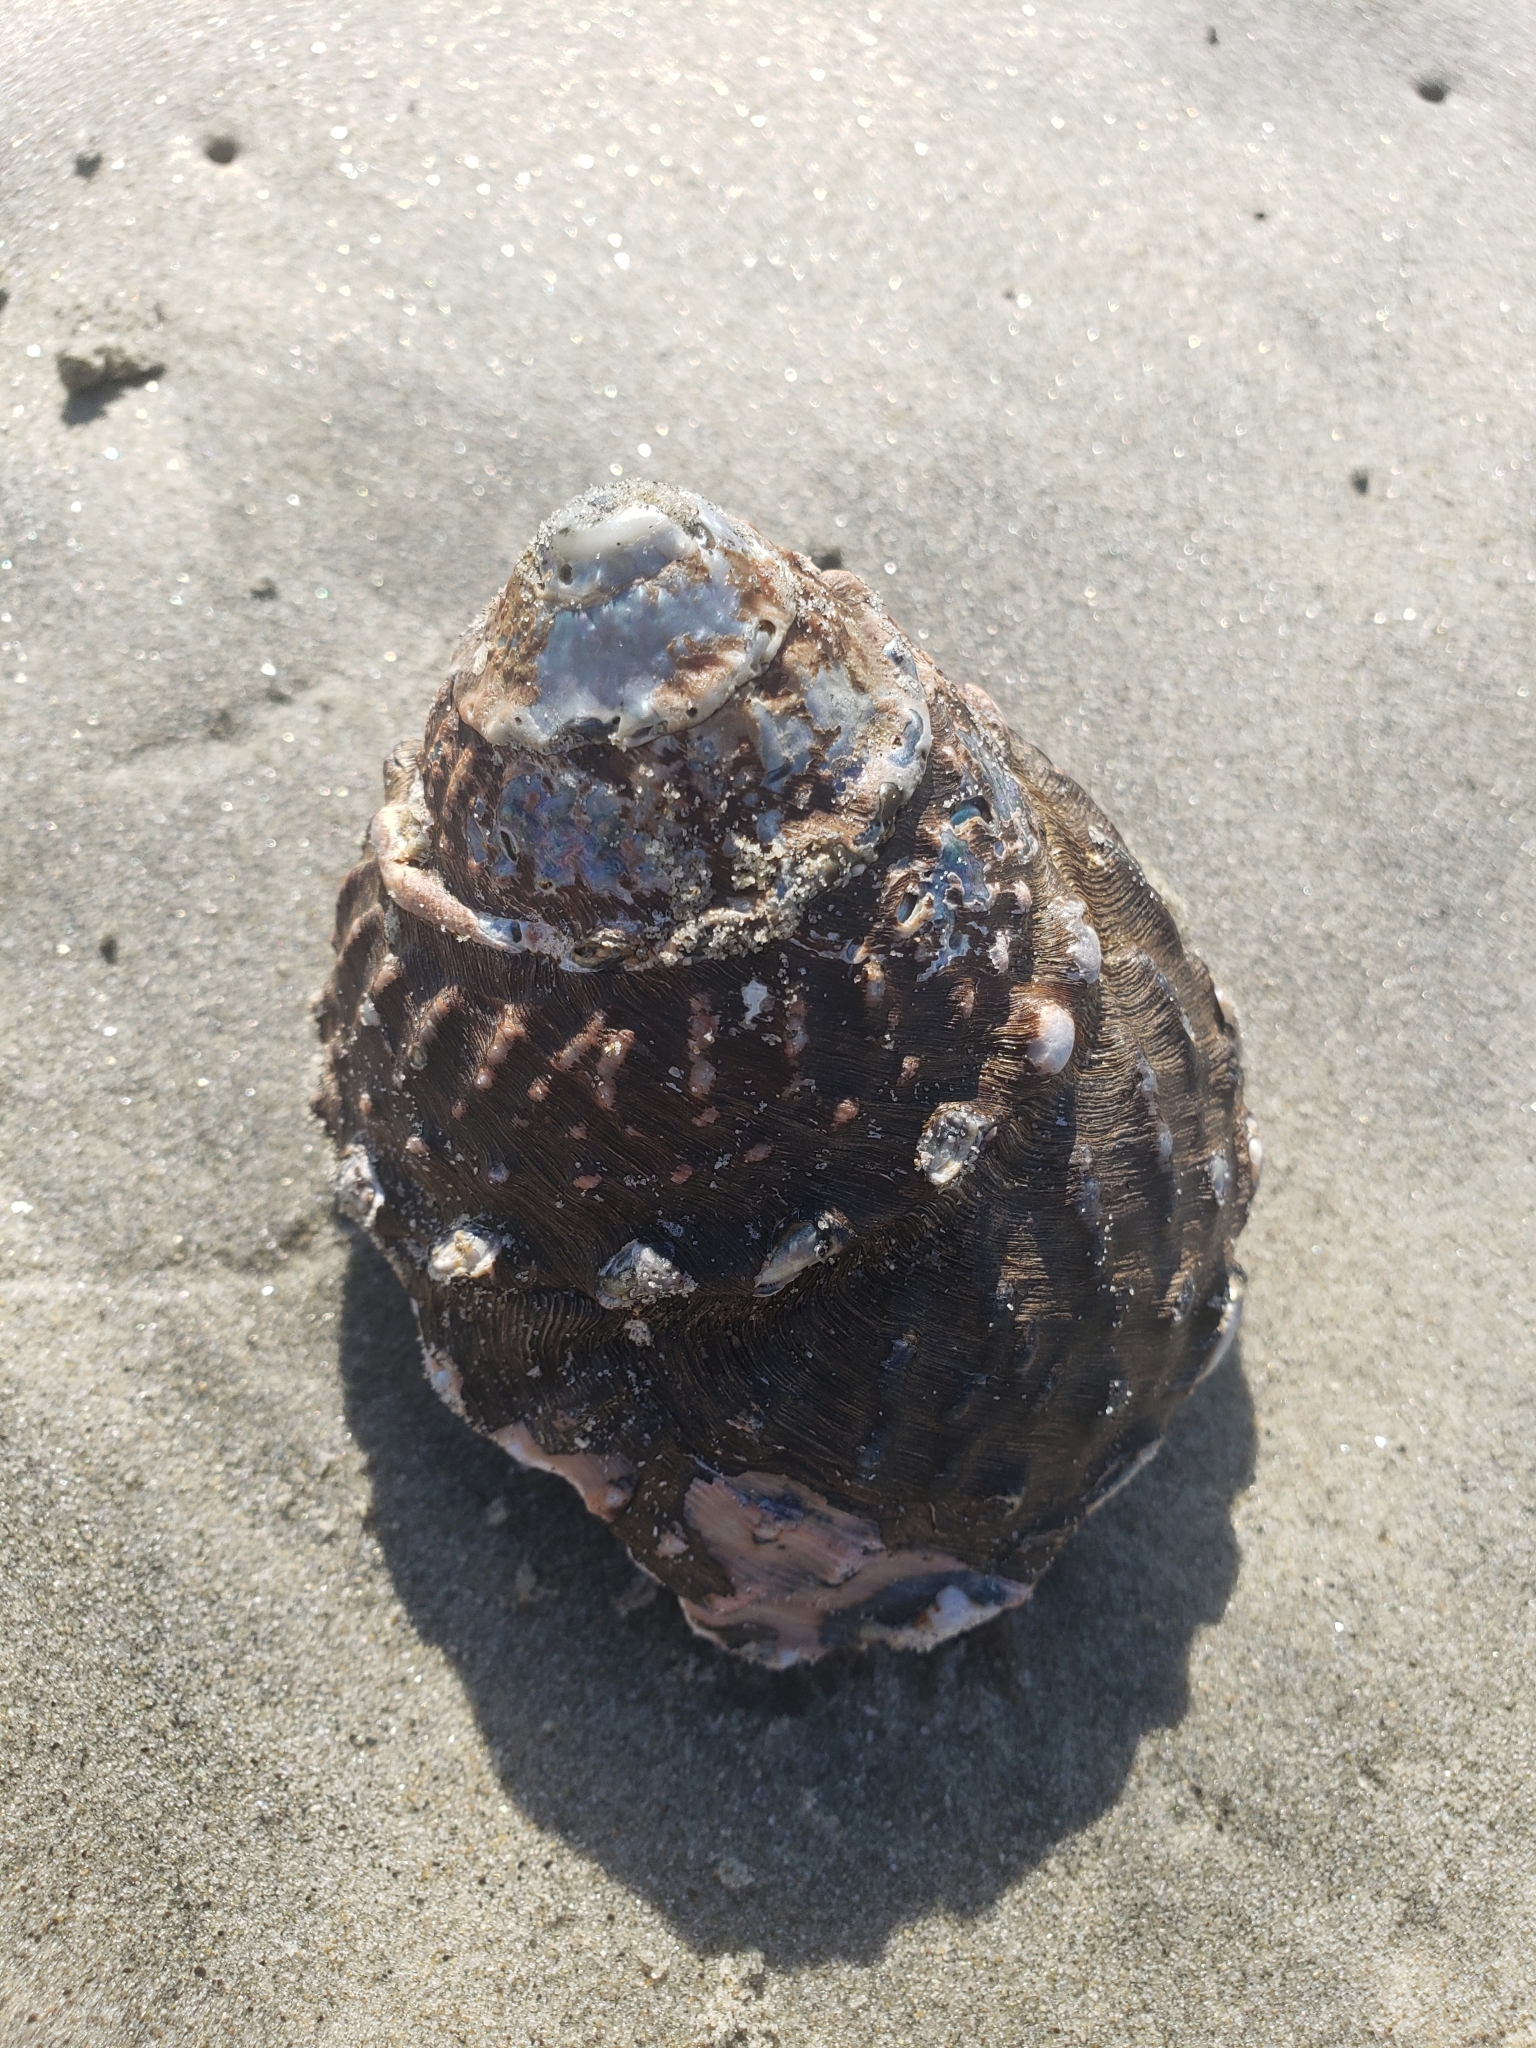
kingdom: Animalia
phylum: Mollusca
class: Gastropoda
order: Trochida
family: Turbinidae
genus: Megastraea
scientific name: Megastraea undosa
